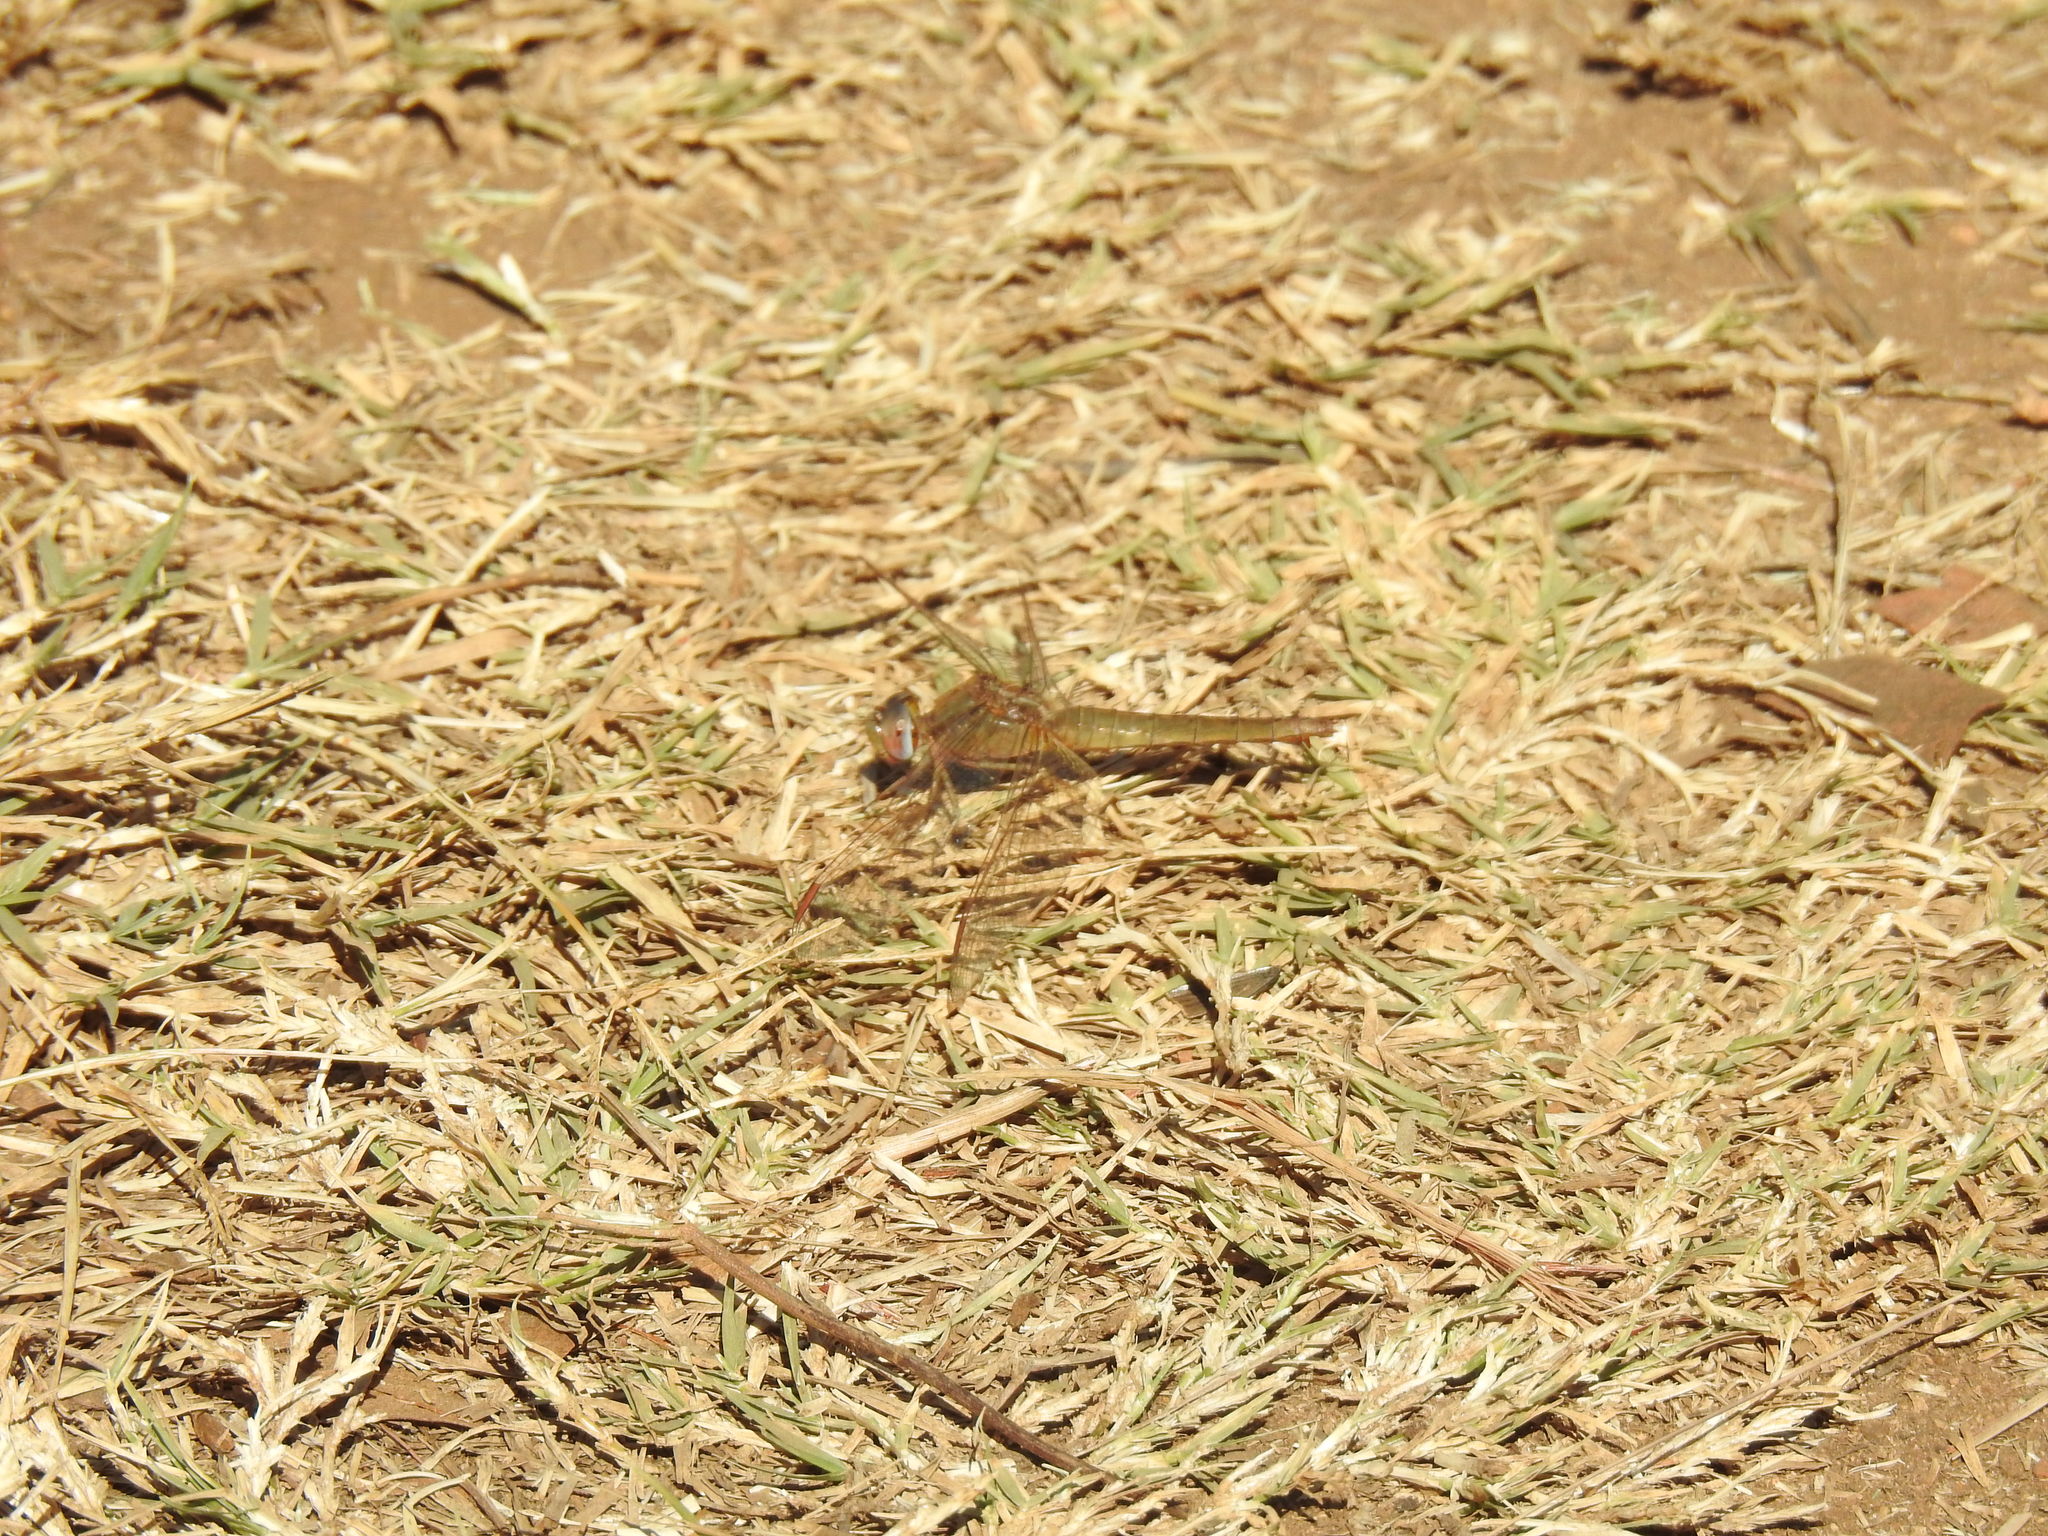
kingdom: Animalia
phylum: Arthropoda
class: Insecta
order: Odonata
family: Libellulidae
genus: Crocothemis
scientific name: Crocothemis erythraea
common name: Scarlet dragonfly
